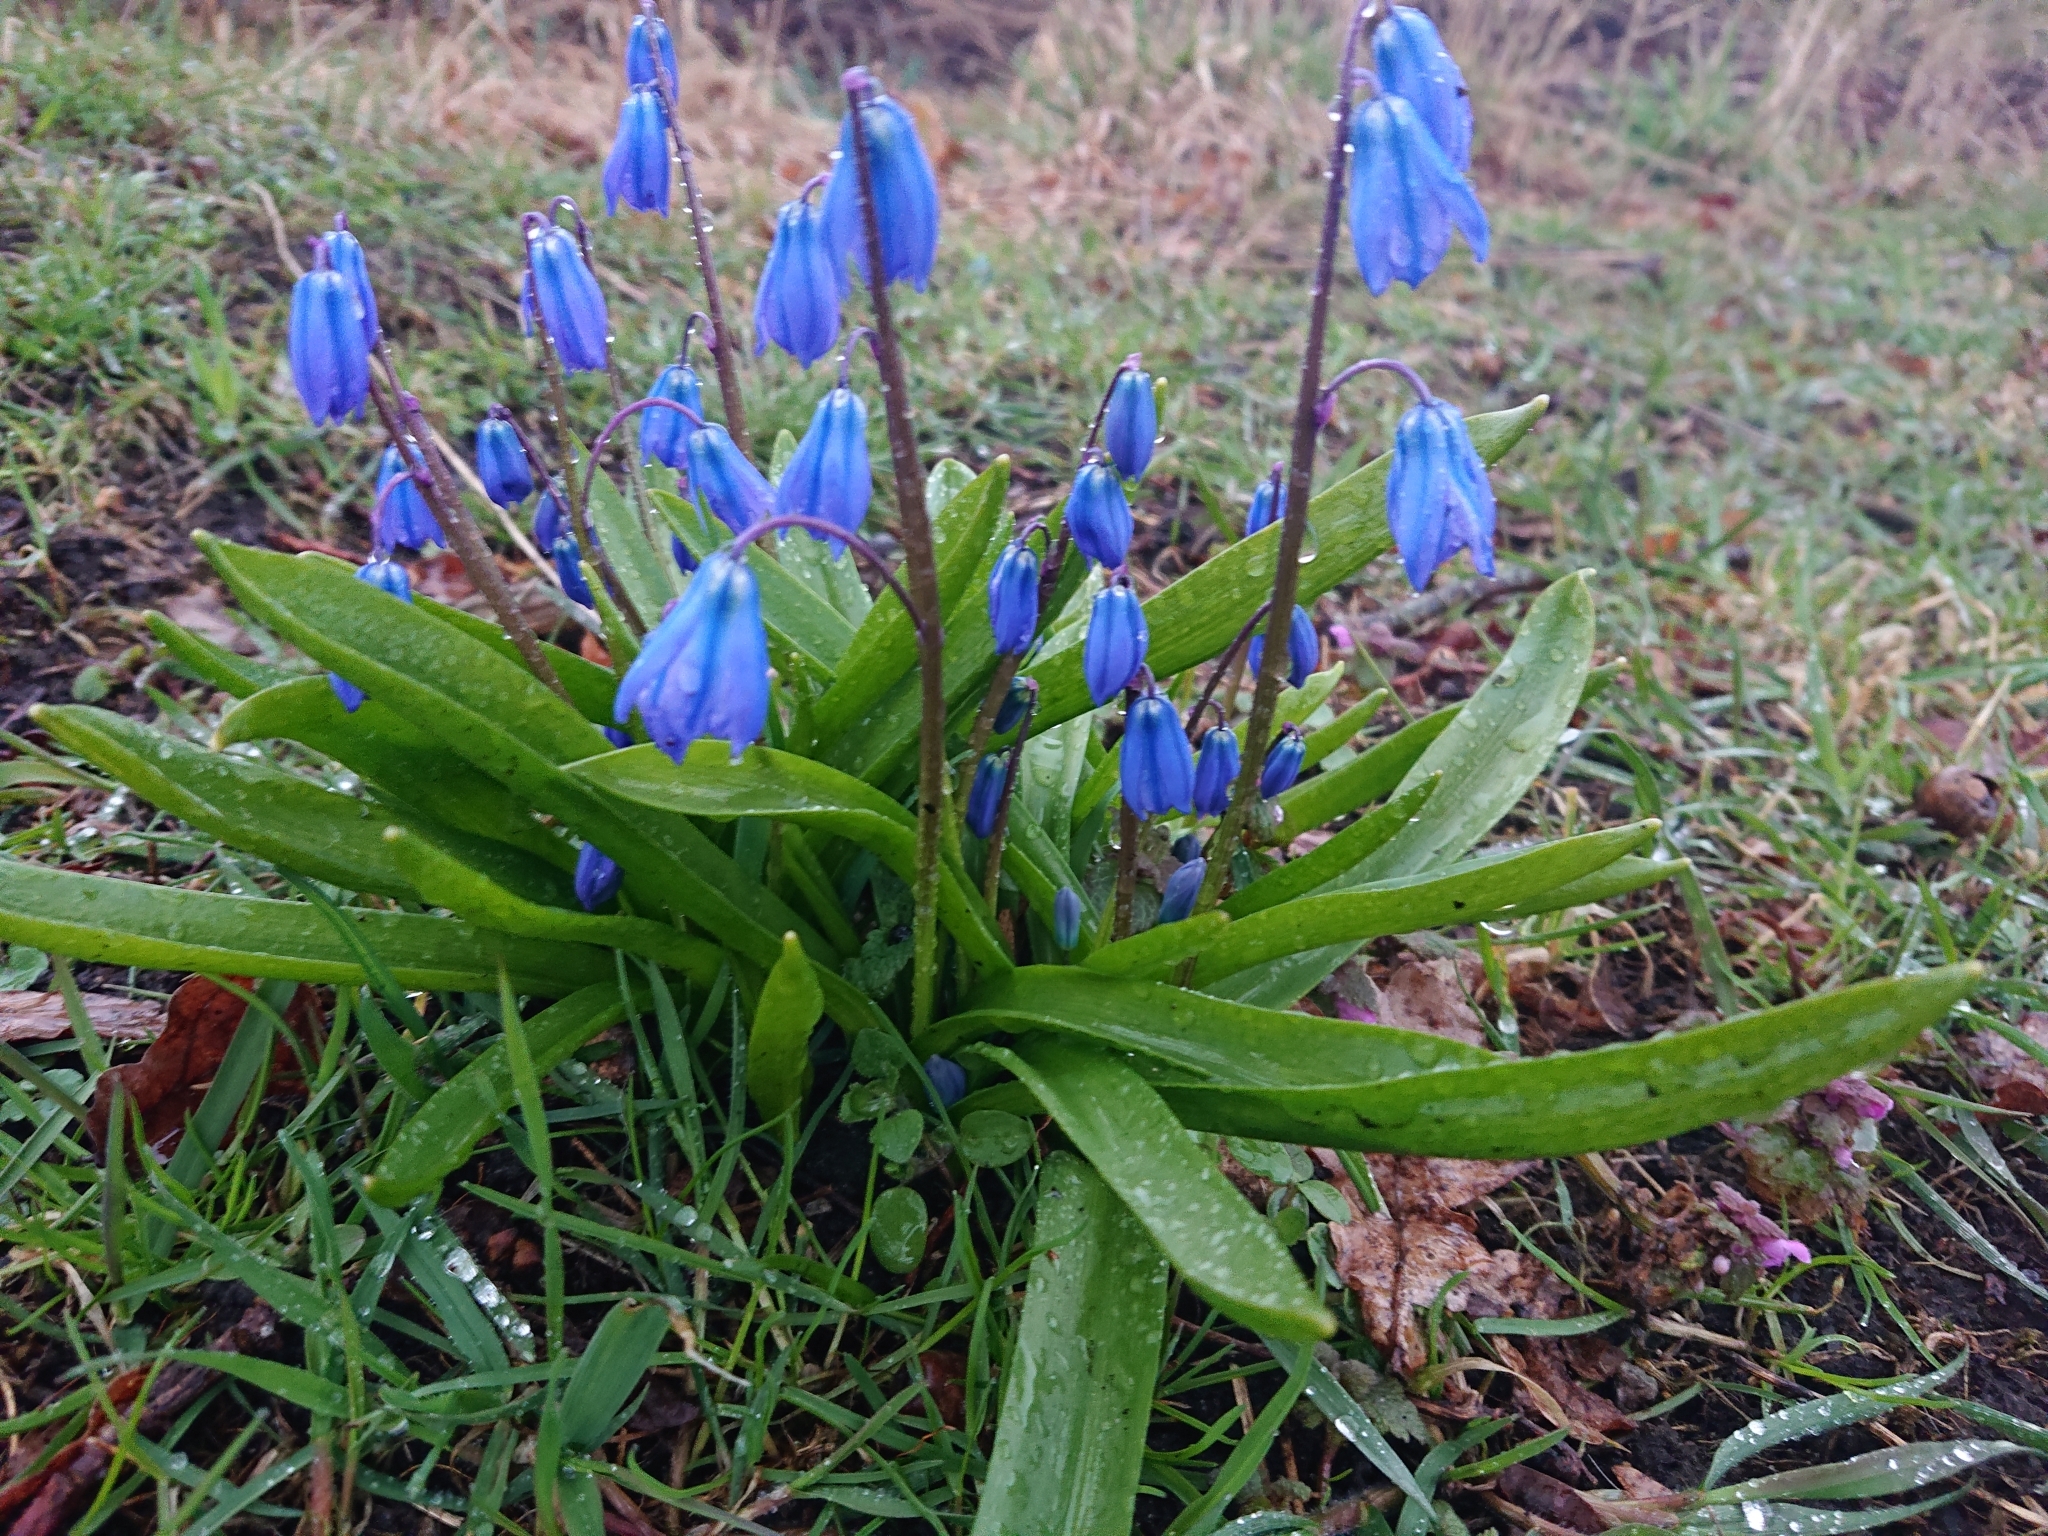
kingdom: Plantae
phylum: Tracheophyta
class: Liliopsida
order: Asparagales
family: Asparagaceae
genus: Scilla
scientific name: Scilla siberica
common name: Siberian squill
